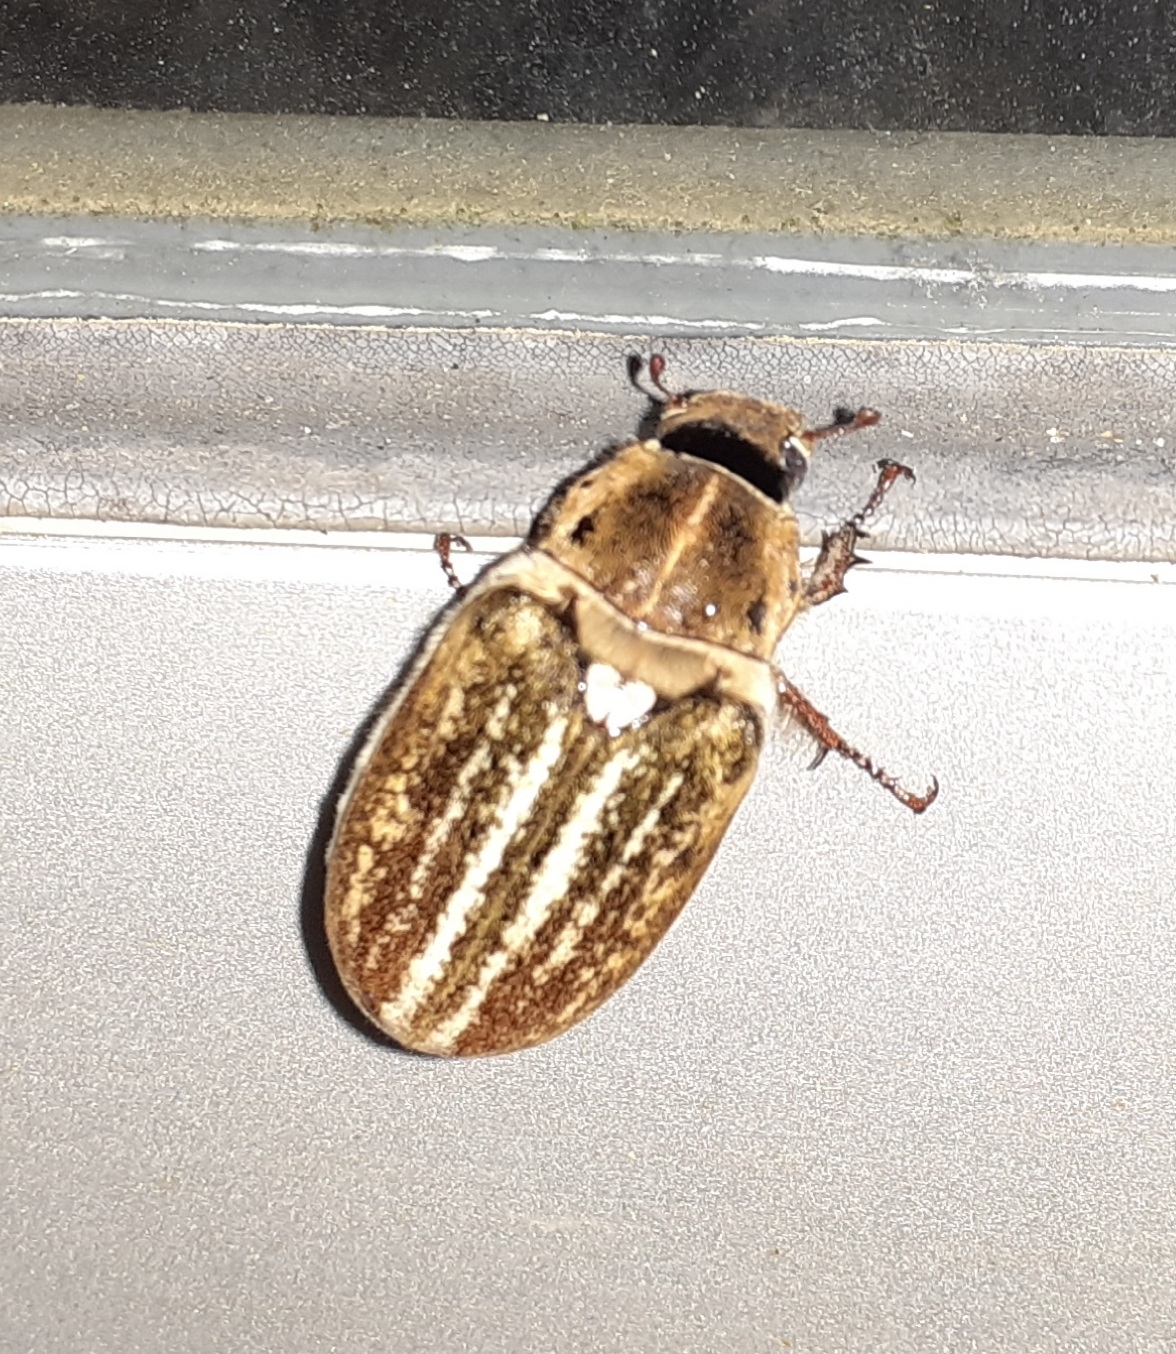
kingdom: Animalia
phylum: Arthropoda
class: Insecta
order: Coleoptera
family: Scarabaeidae
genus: Anoxia
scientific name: Anoxia australis
